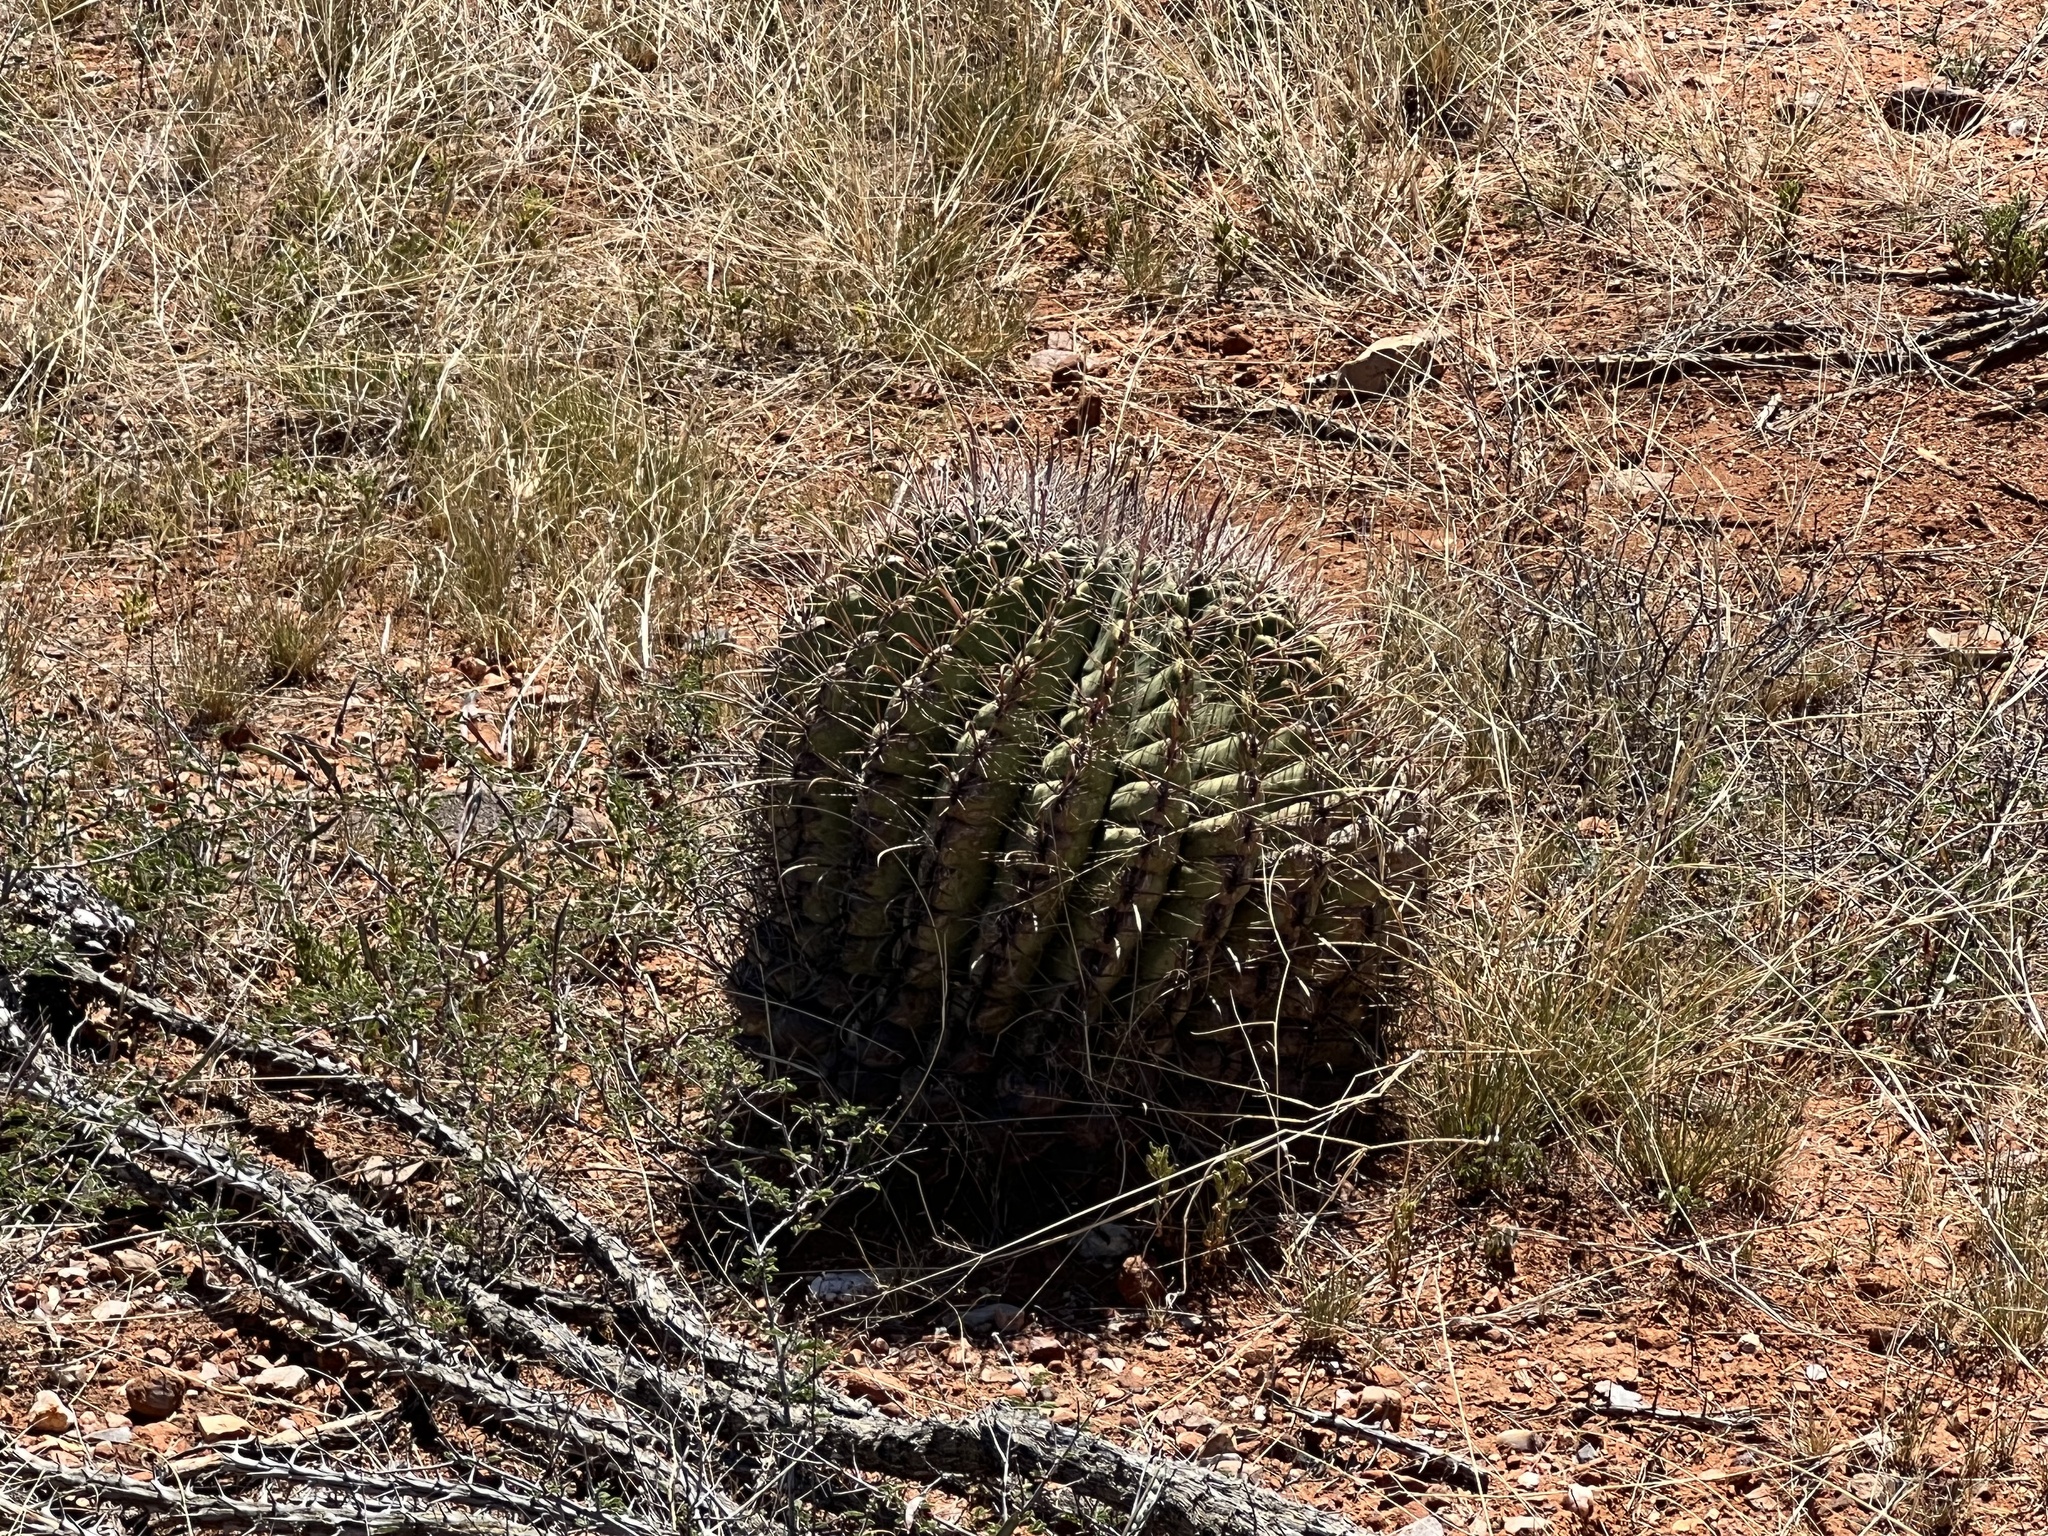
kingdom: Plantae
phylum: Tracheophyta
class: Magnoliopsida
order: Caryophyllales
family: Cactaceae
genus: Ferocactus
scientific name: Ferocactus wislizeni
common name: Candy barrel cactus
